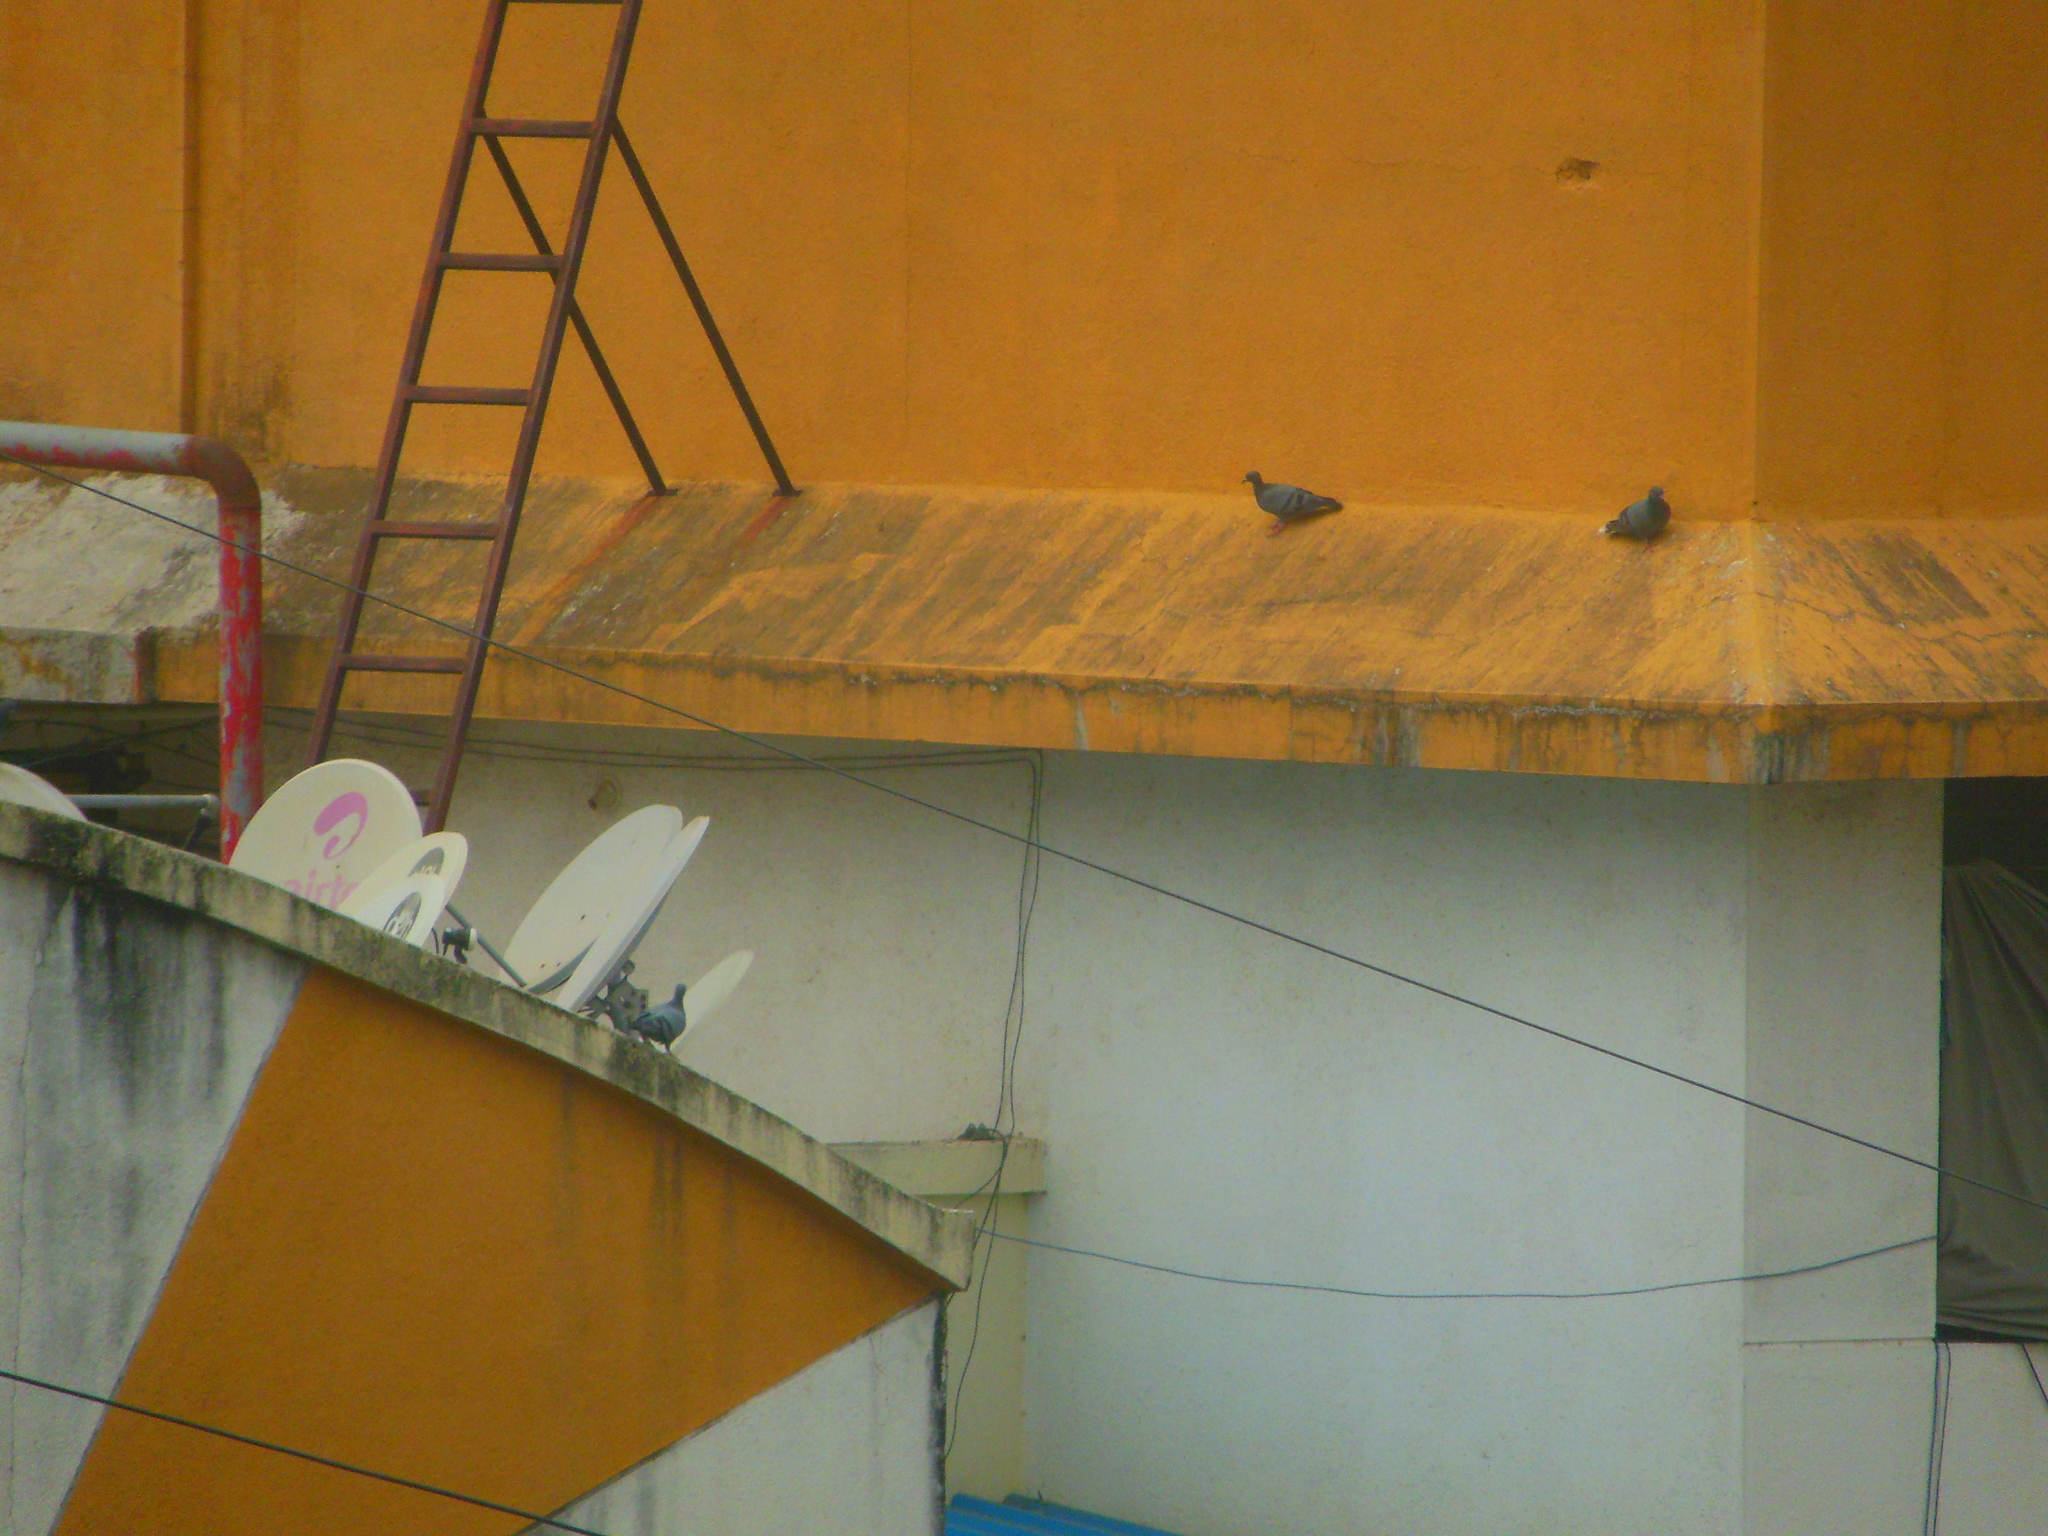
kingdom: Animalia
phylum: Chordata
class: Aves
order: Columbiformes
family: Columbidae
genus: Columba
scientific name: Columba livia
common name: Rock pigeon
